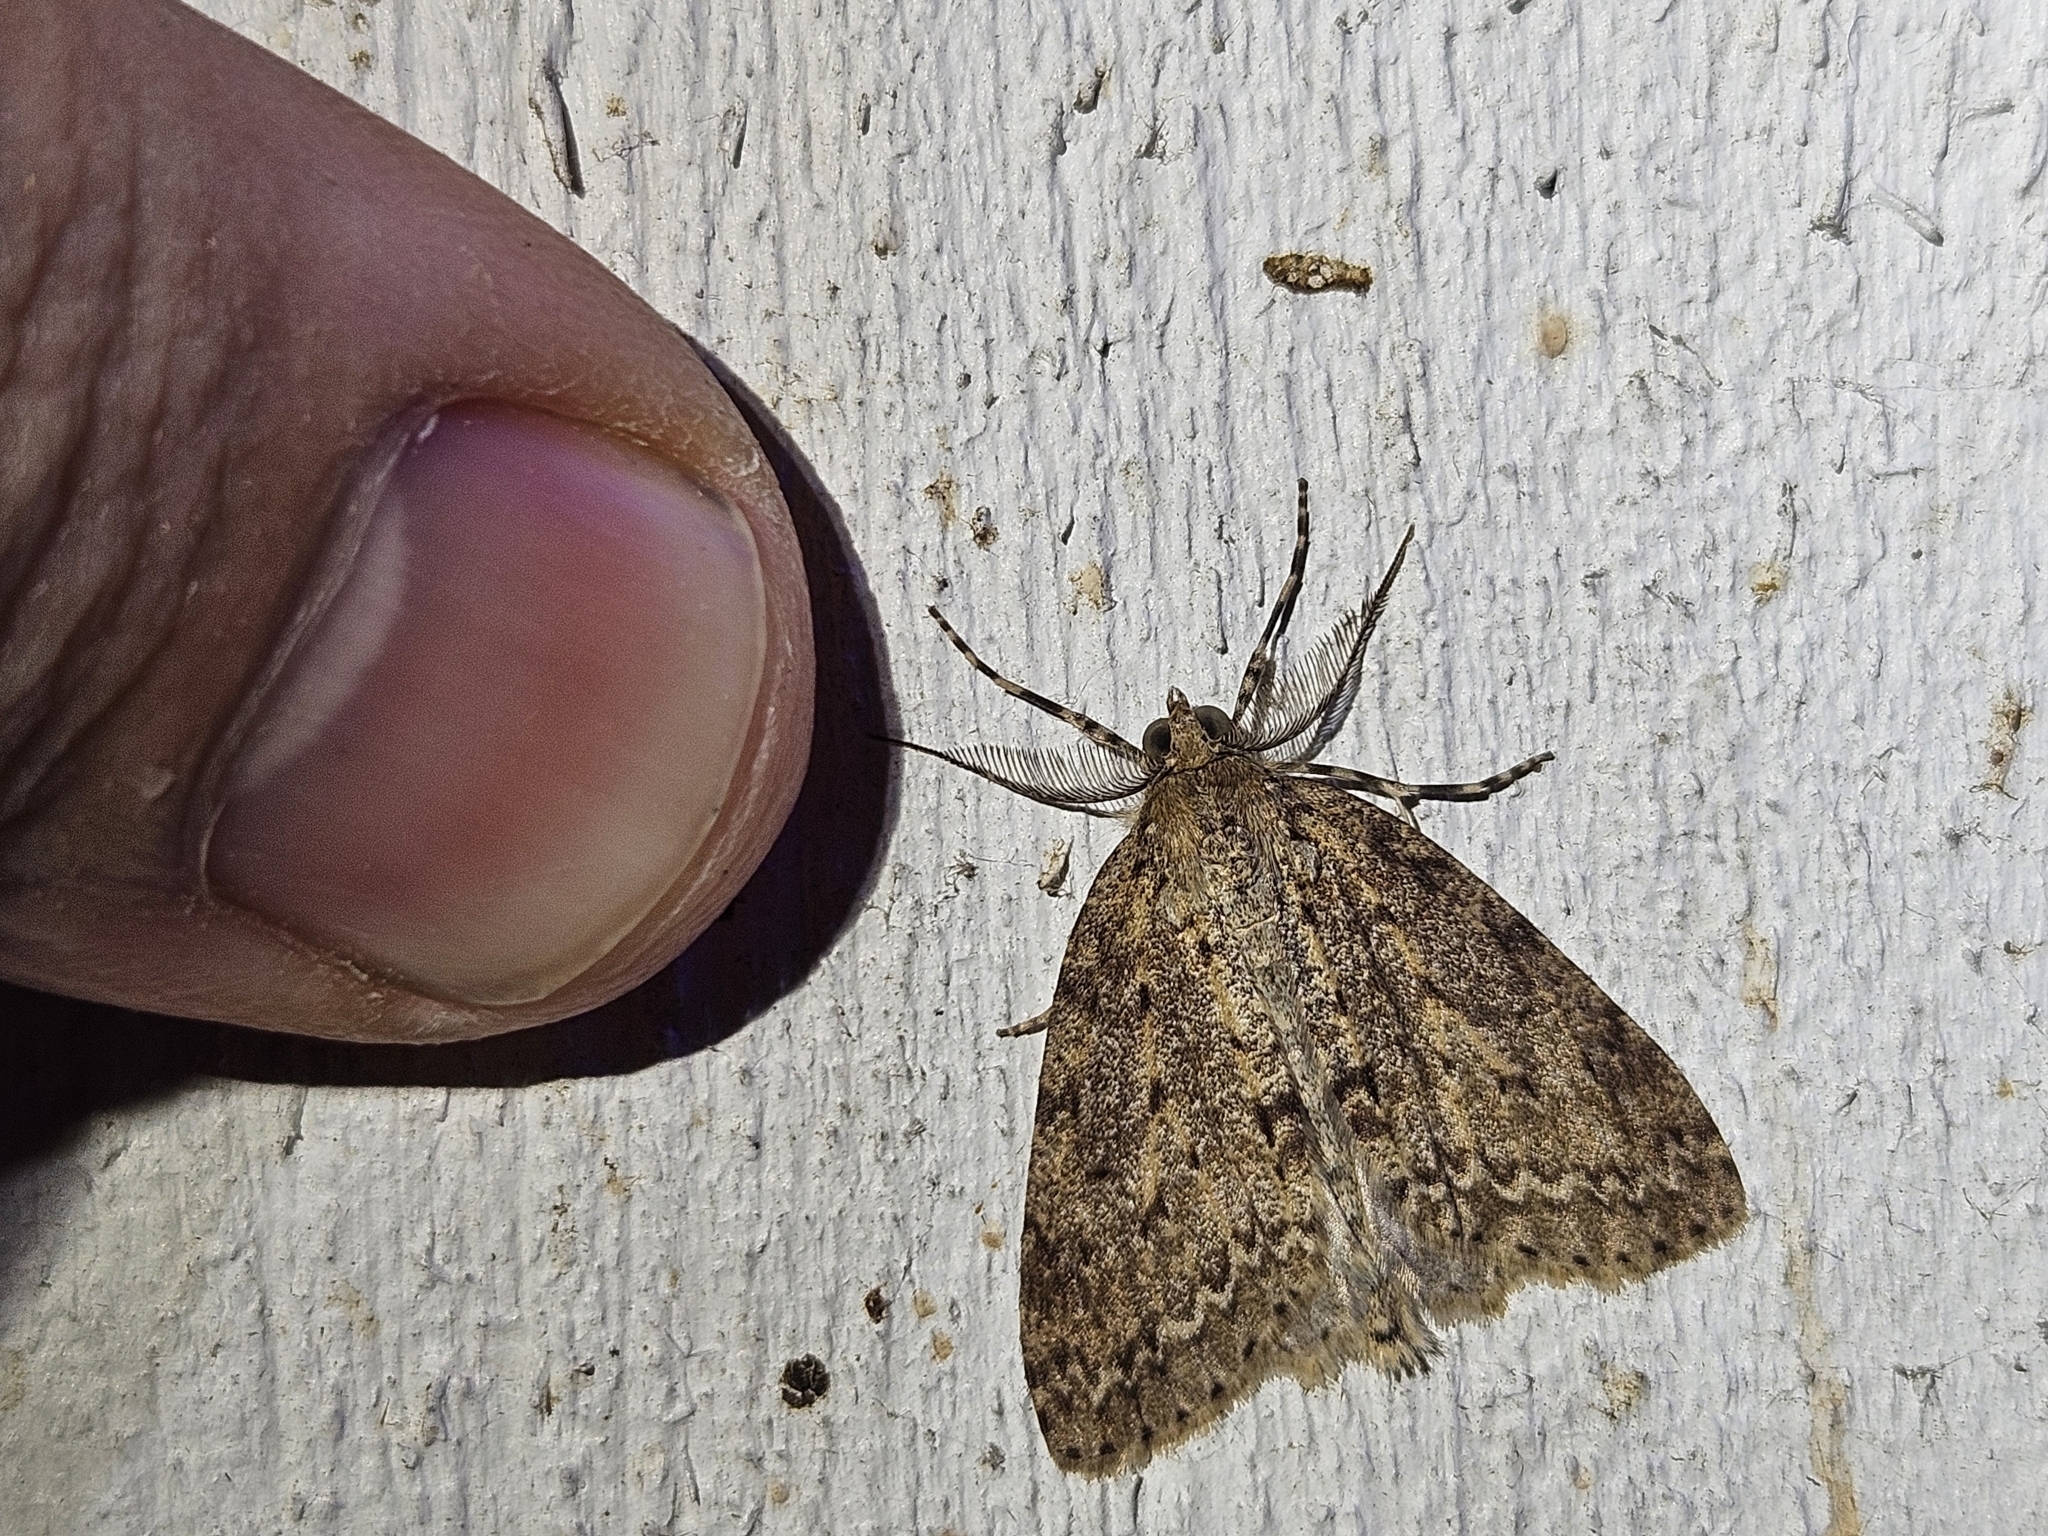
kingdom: Animalia
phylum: Arthropoda
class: Insecta
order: Lepidoptera
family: Geometridae
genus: Pseudocoremia
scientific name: Pseudocoremia fenerata
